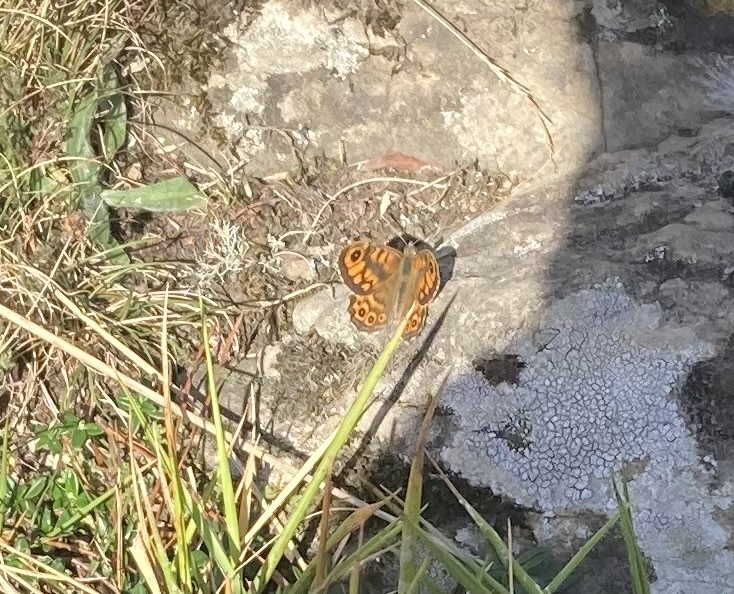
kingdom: Animalia
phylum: Arthropoda
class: Insecta
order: Lepidoptera
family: Nymphalidae
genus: Pararge
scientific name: Pararge Lasiommata megera
